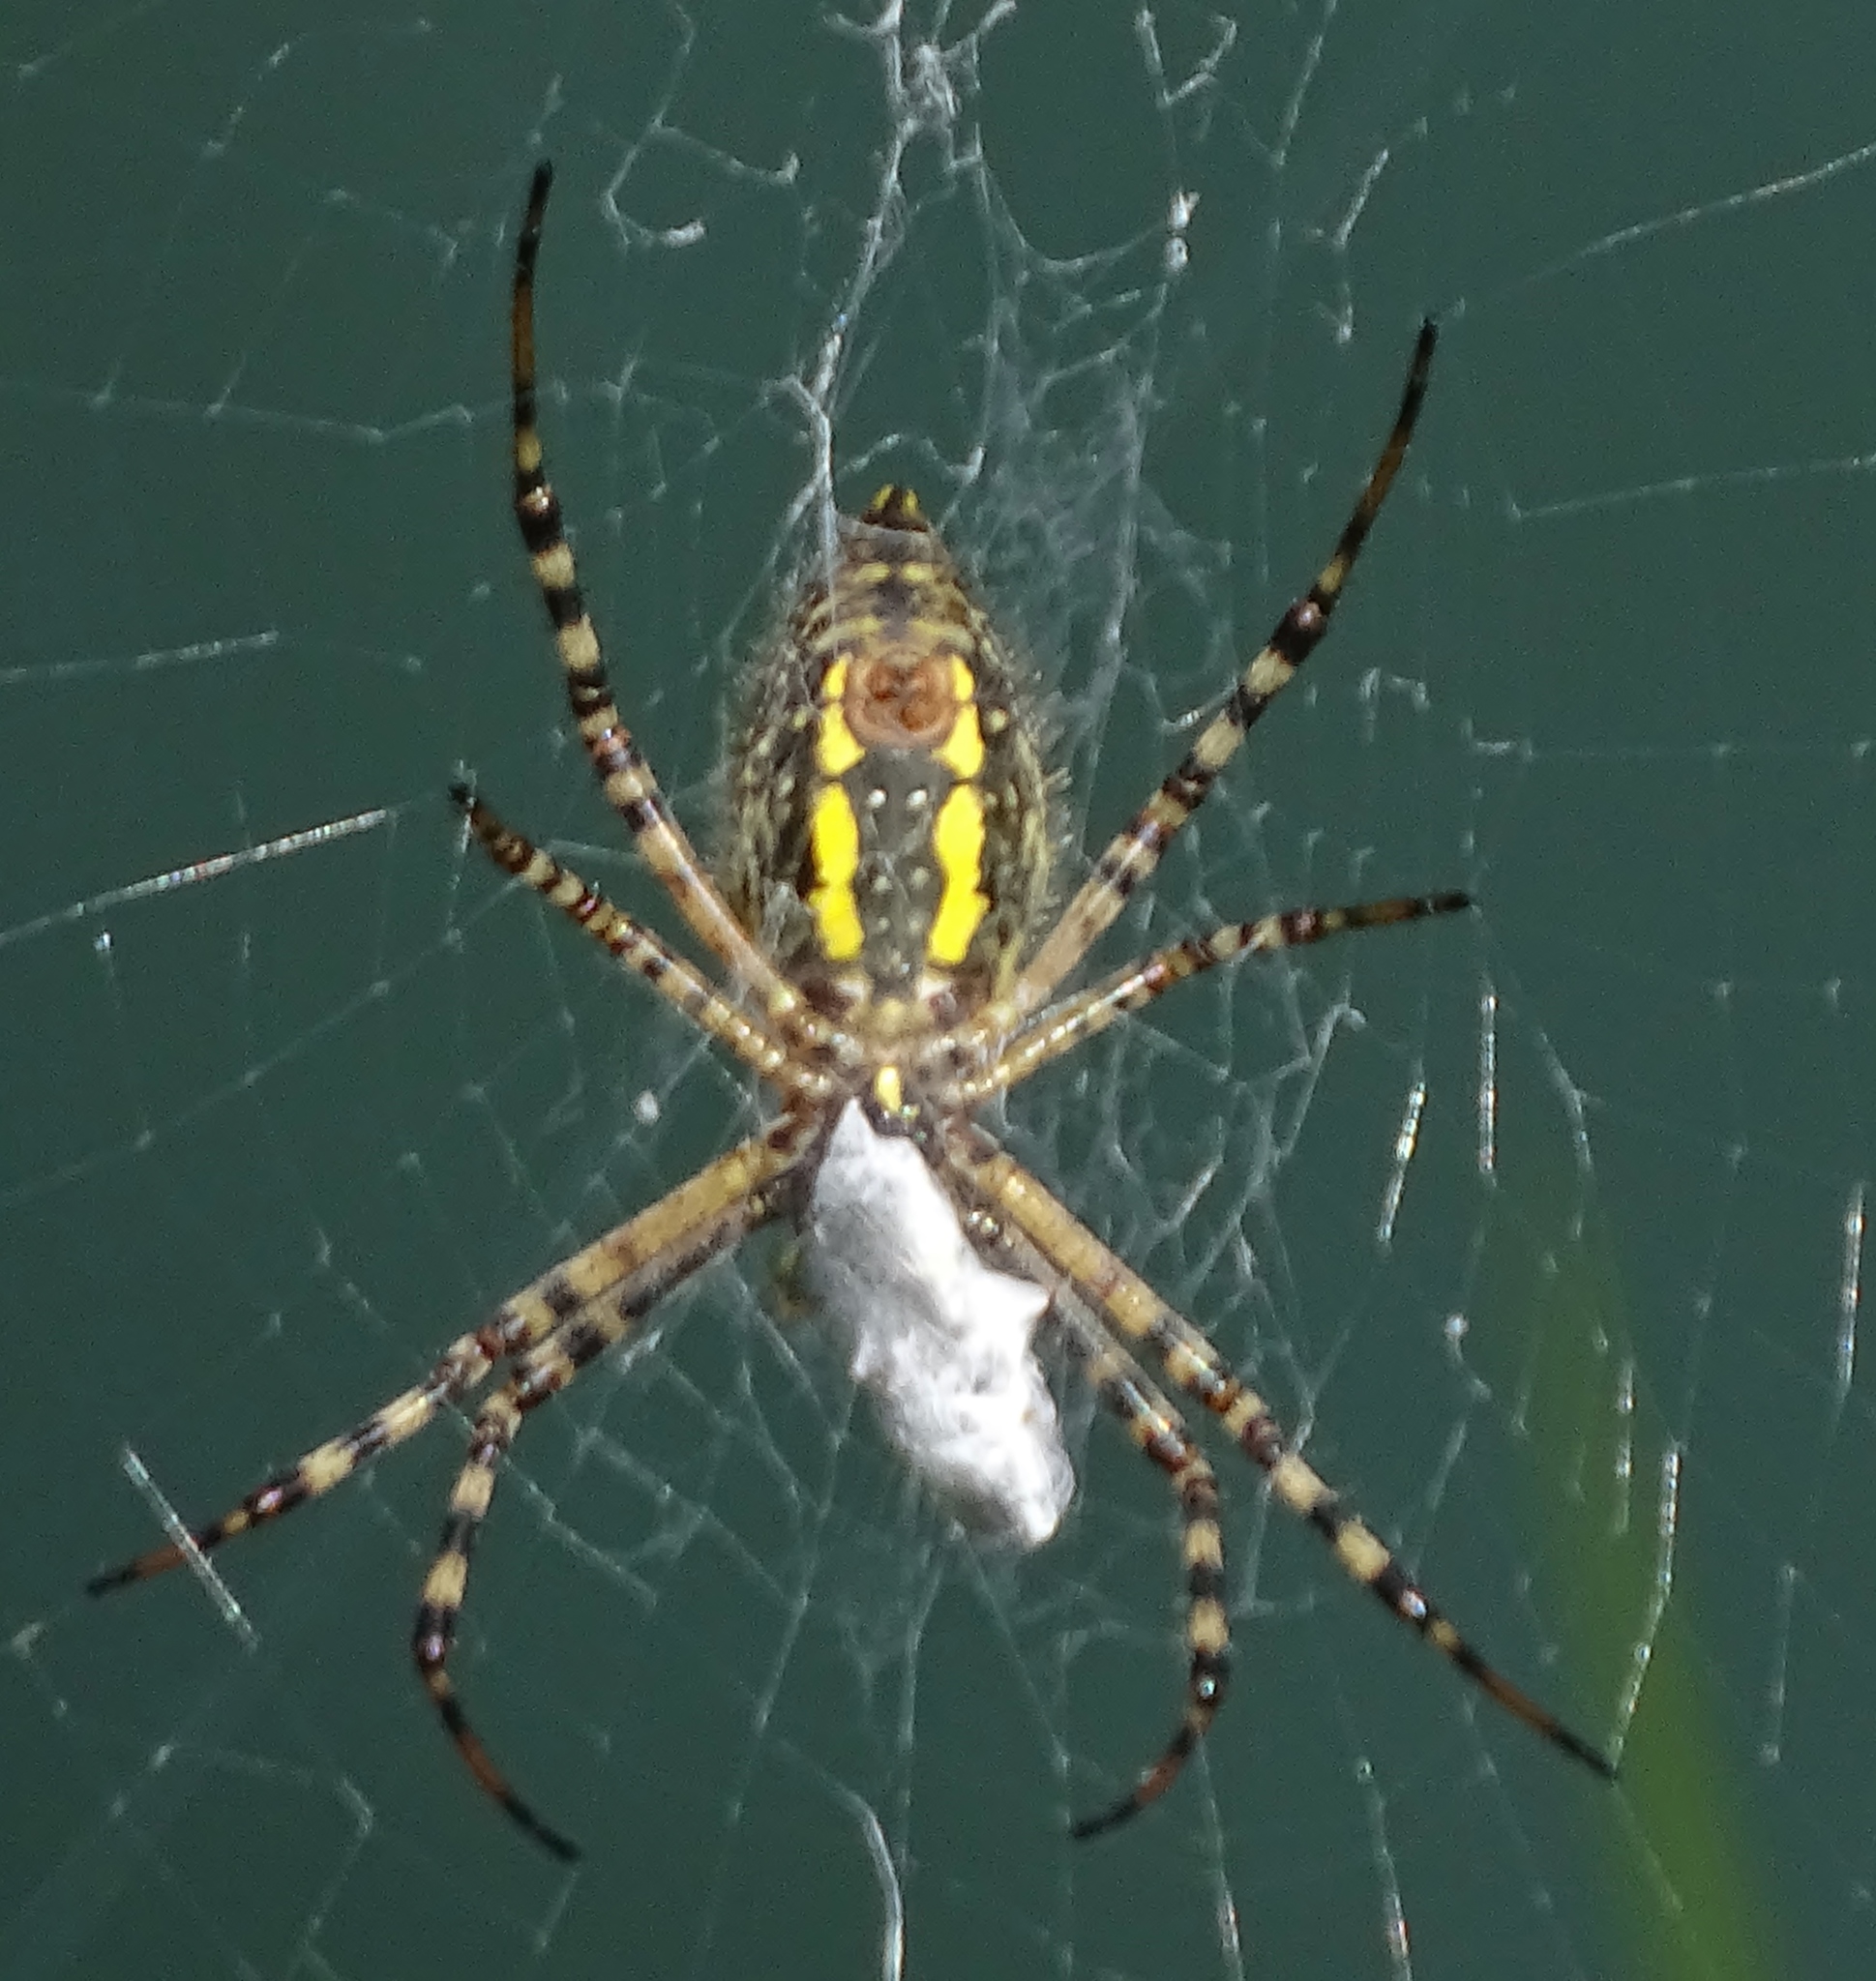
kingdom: Animalia
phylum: Arthropoda
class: Arachnida
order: Araneae
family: Araneidae
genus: Argiope
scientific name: Argiope aurantia
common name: Orb weavers
